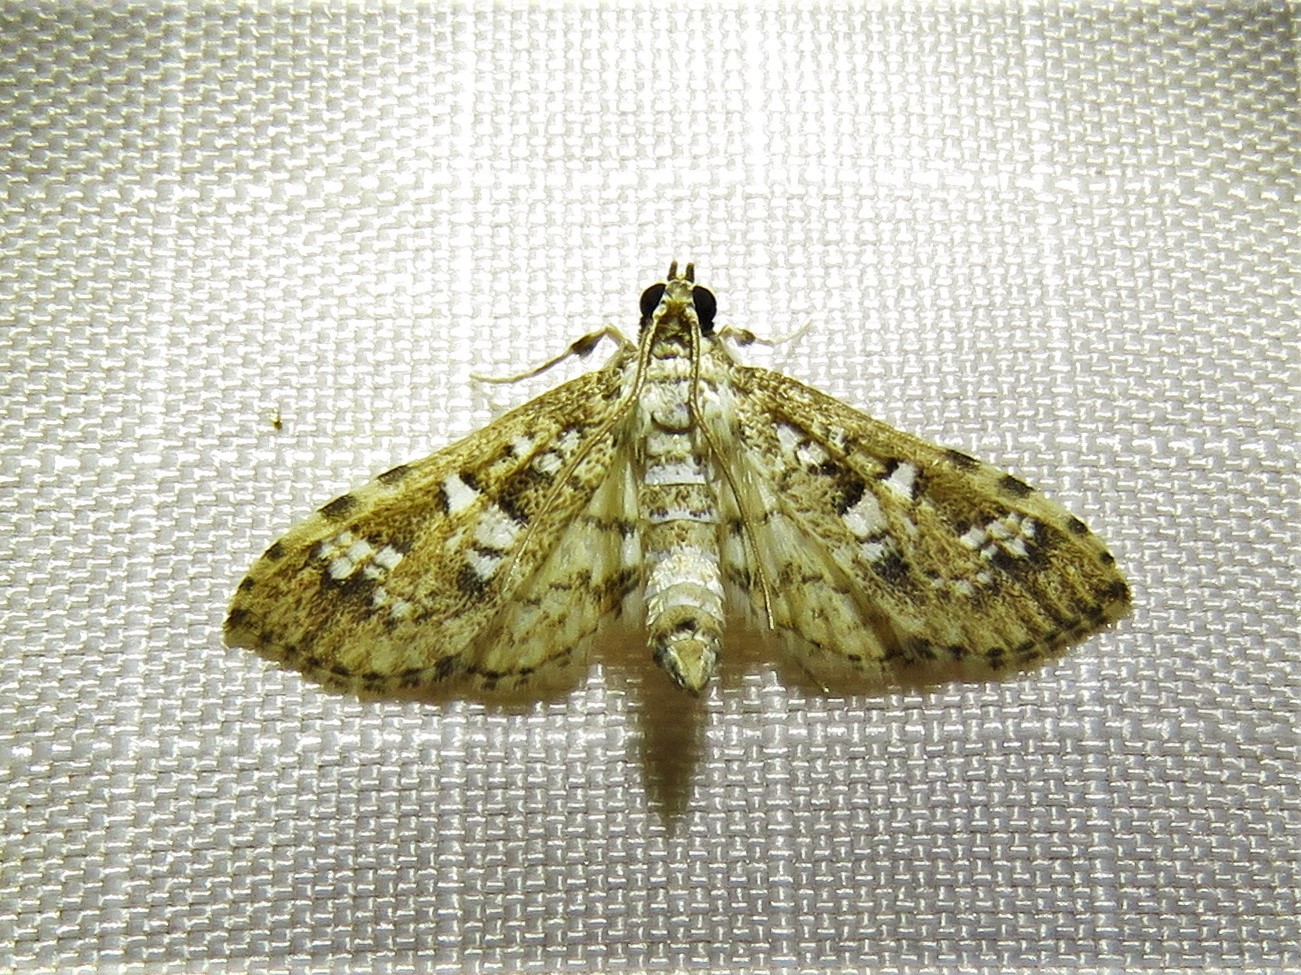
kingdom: Animalia
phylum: Arthropoda
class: Insecta
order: Lepidoptera
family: Crambidae
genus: Samea
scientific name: Samea multiplicalis
